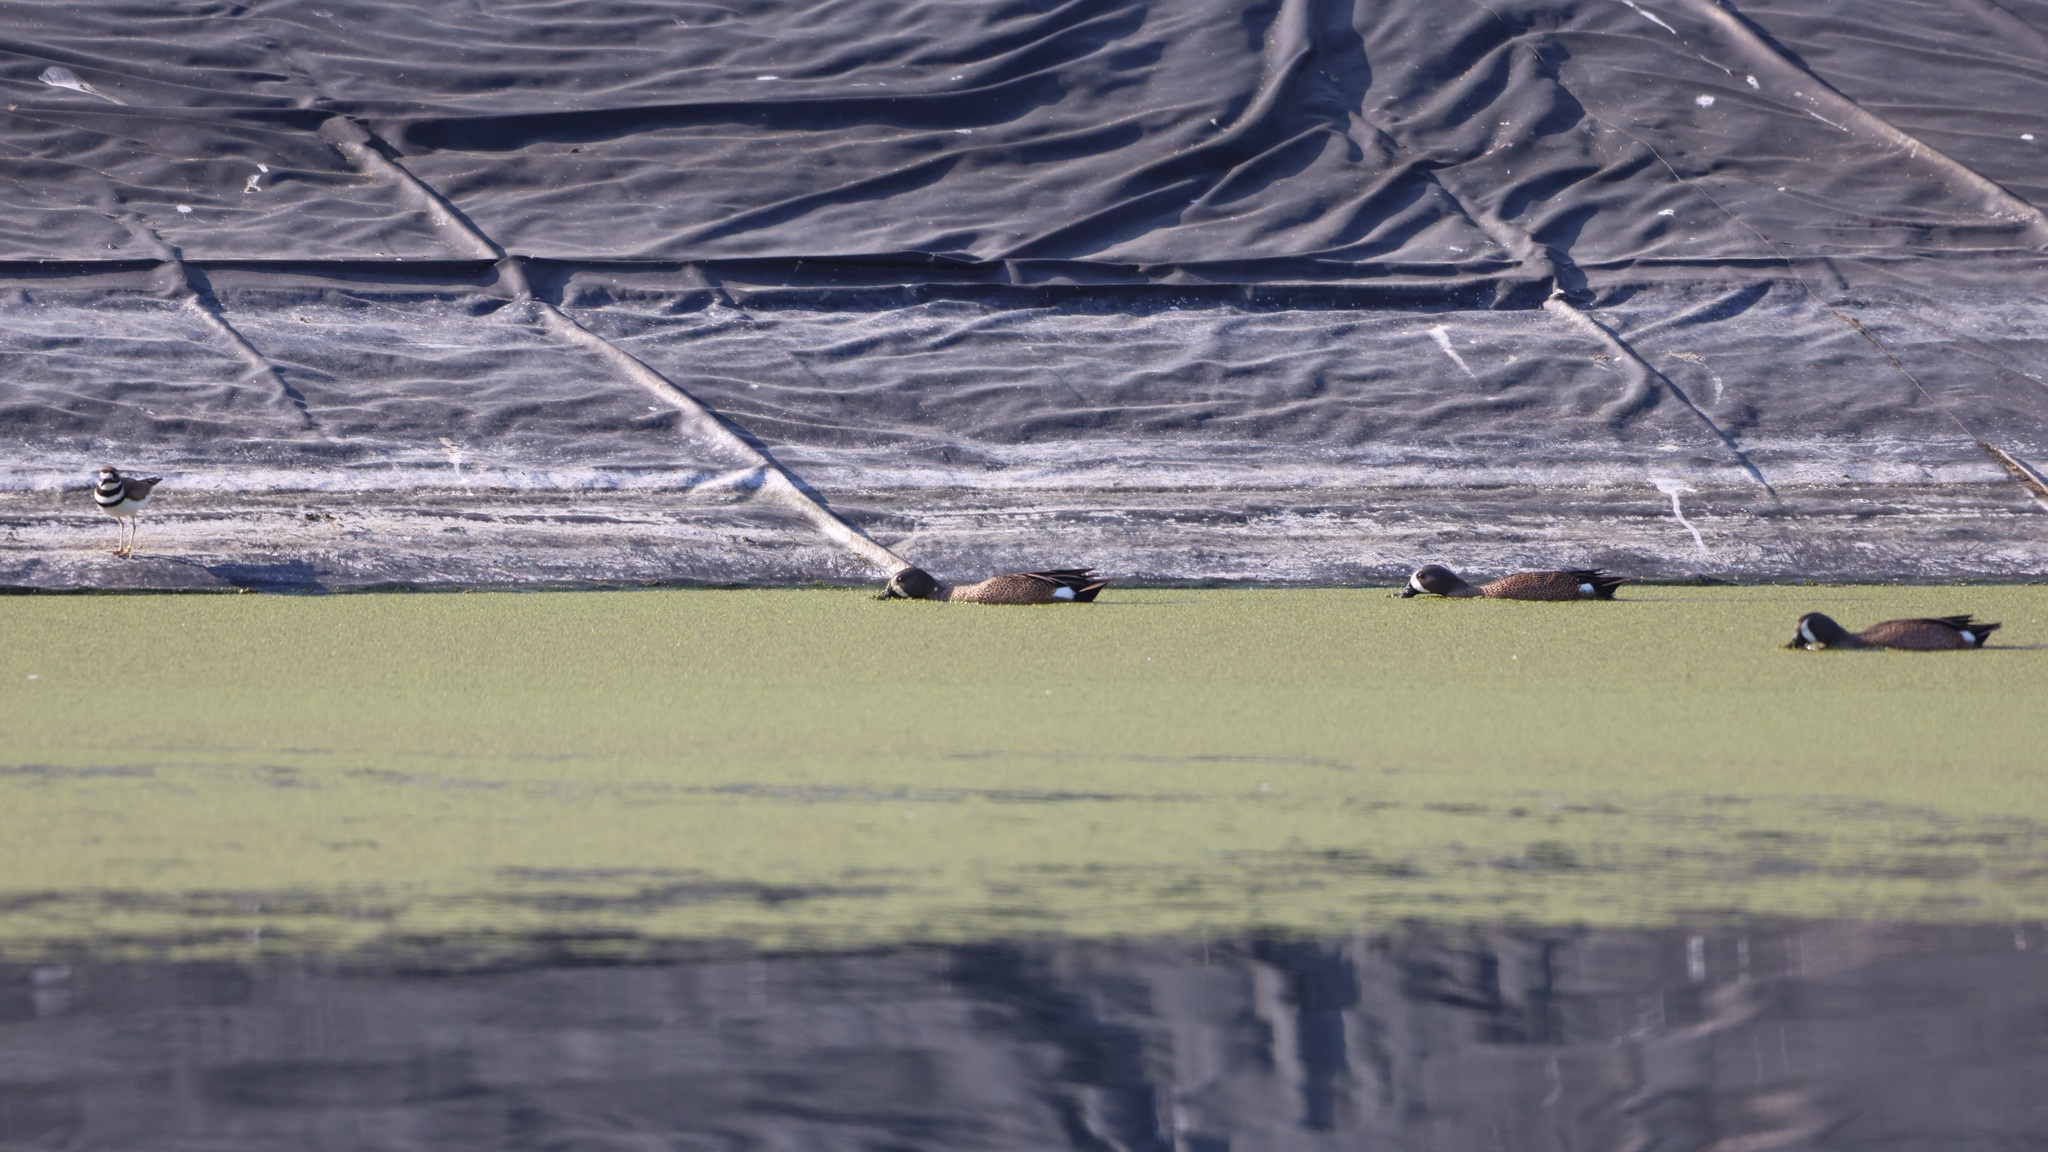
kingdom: Animalia
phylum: Chordata
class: Aves
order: Charadriiformes
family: Charadriidae
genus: Charadrius
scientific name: Charadrius vociferus
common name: Killdeer
